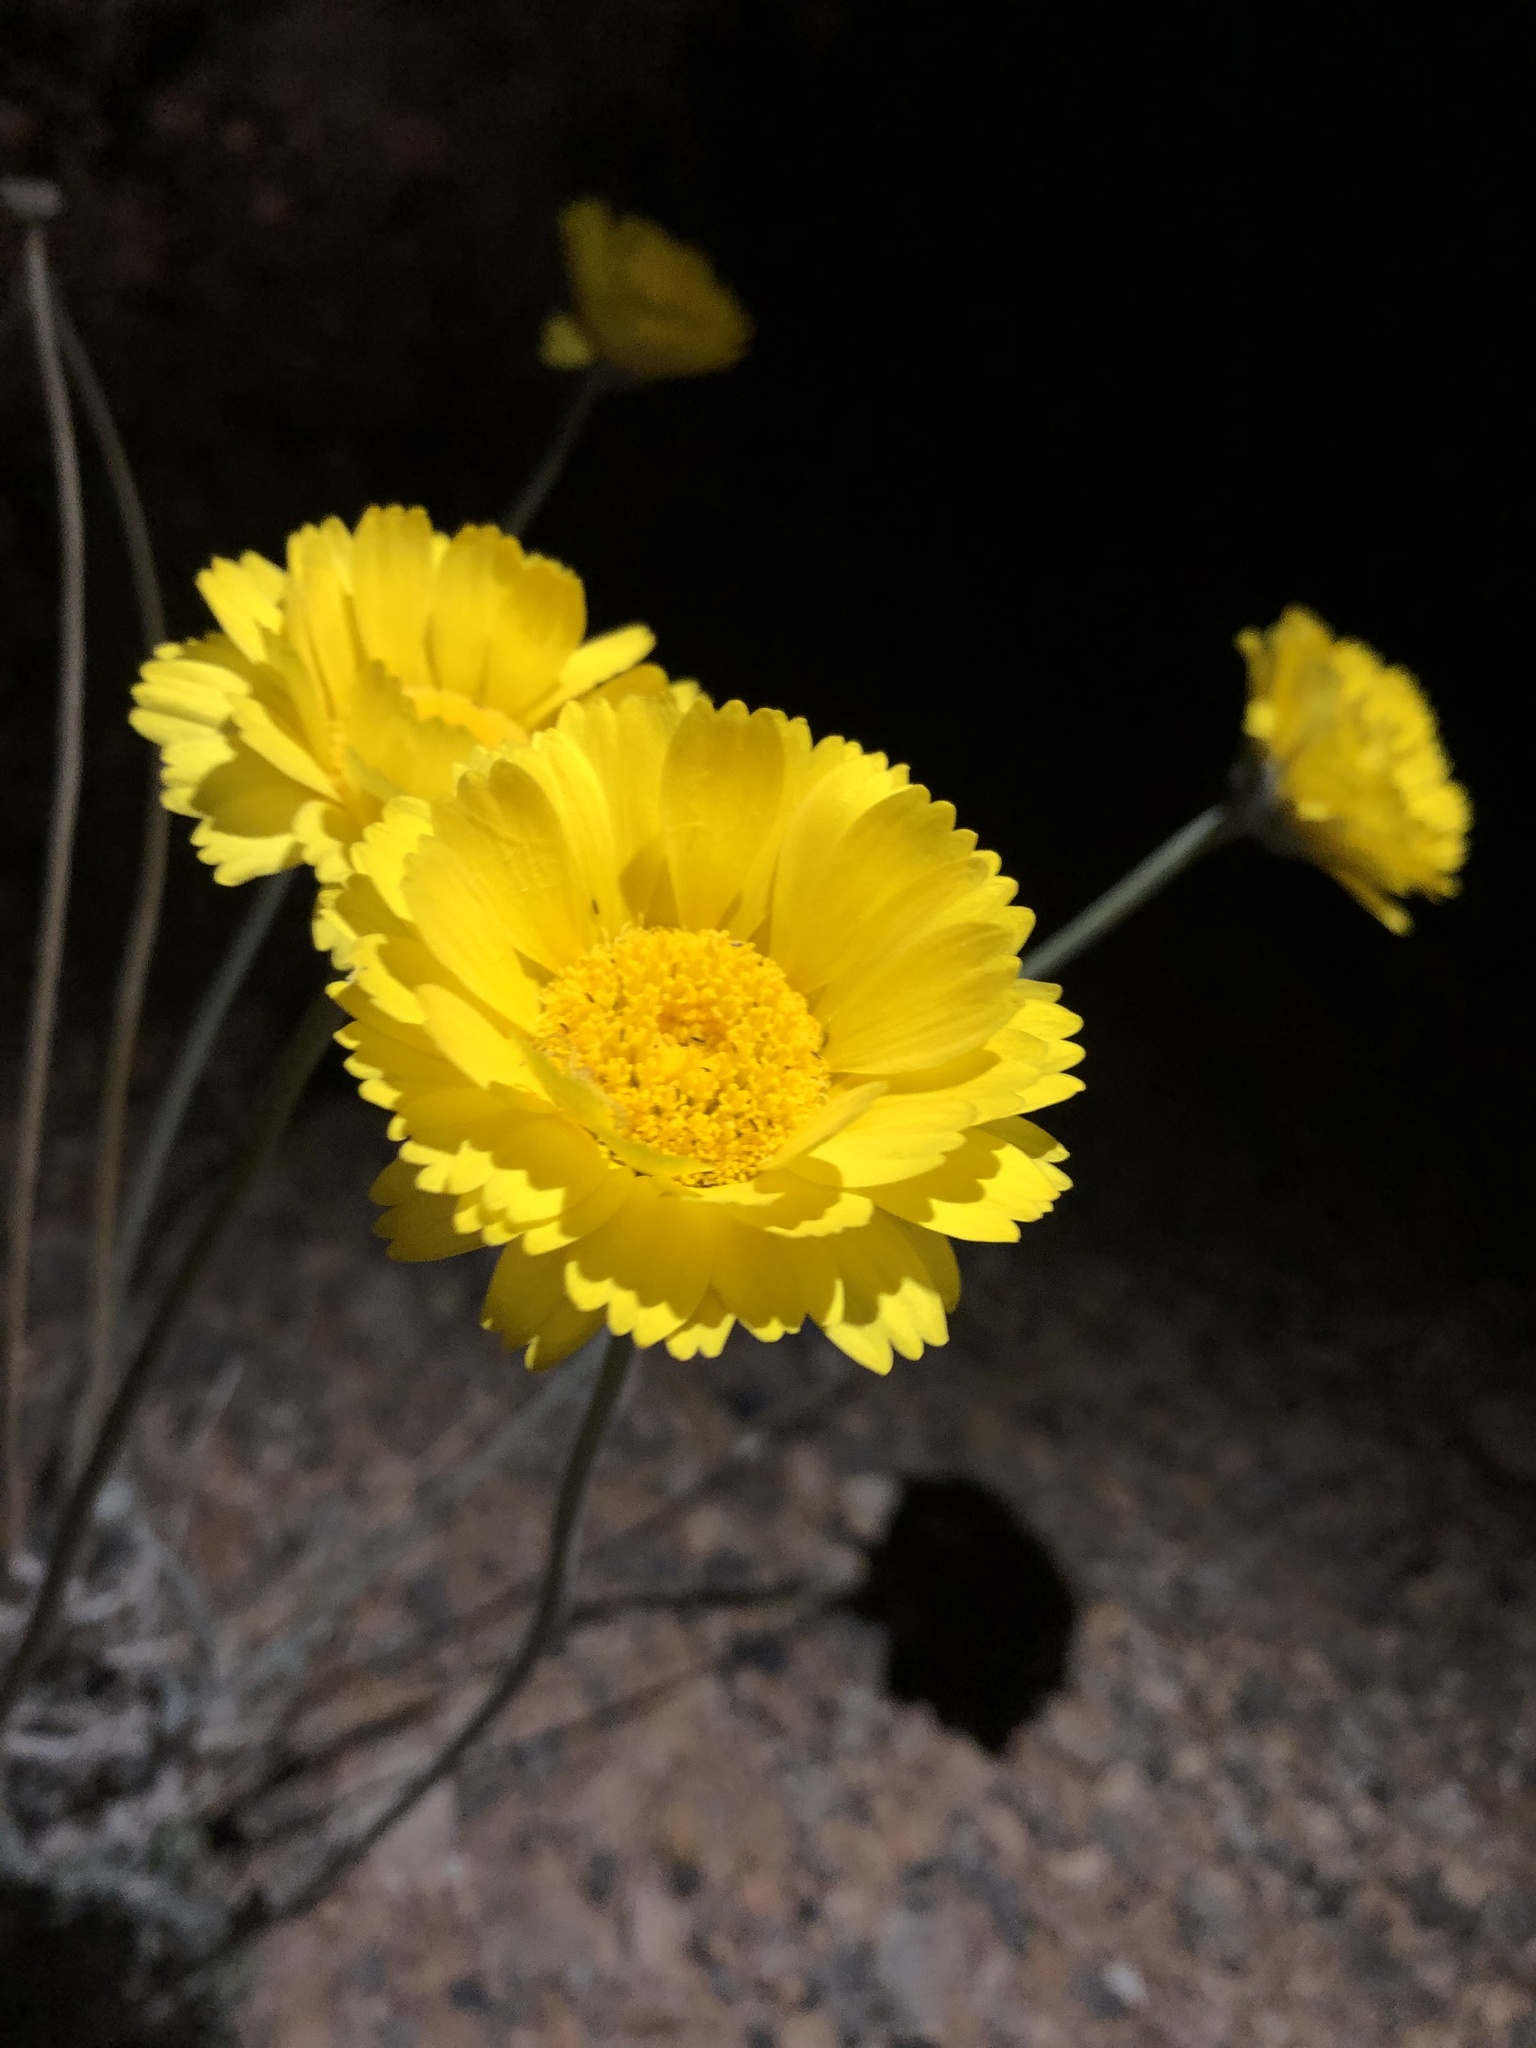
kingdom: Plantae
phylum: Tracheophyta
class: Magnoliopsida
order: Asterales
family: Asteraceae
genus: Baileya
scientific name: Baileya multiradiata
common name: Desert-marigold
